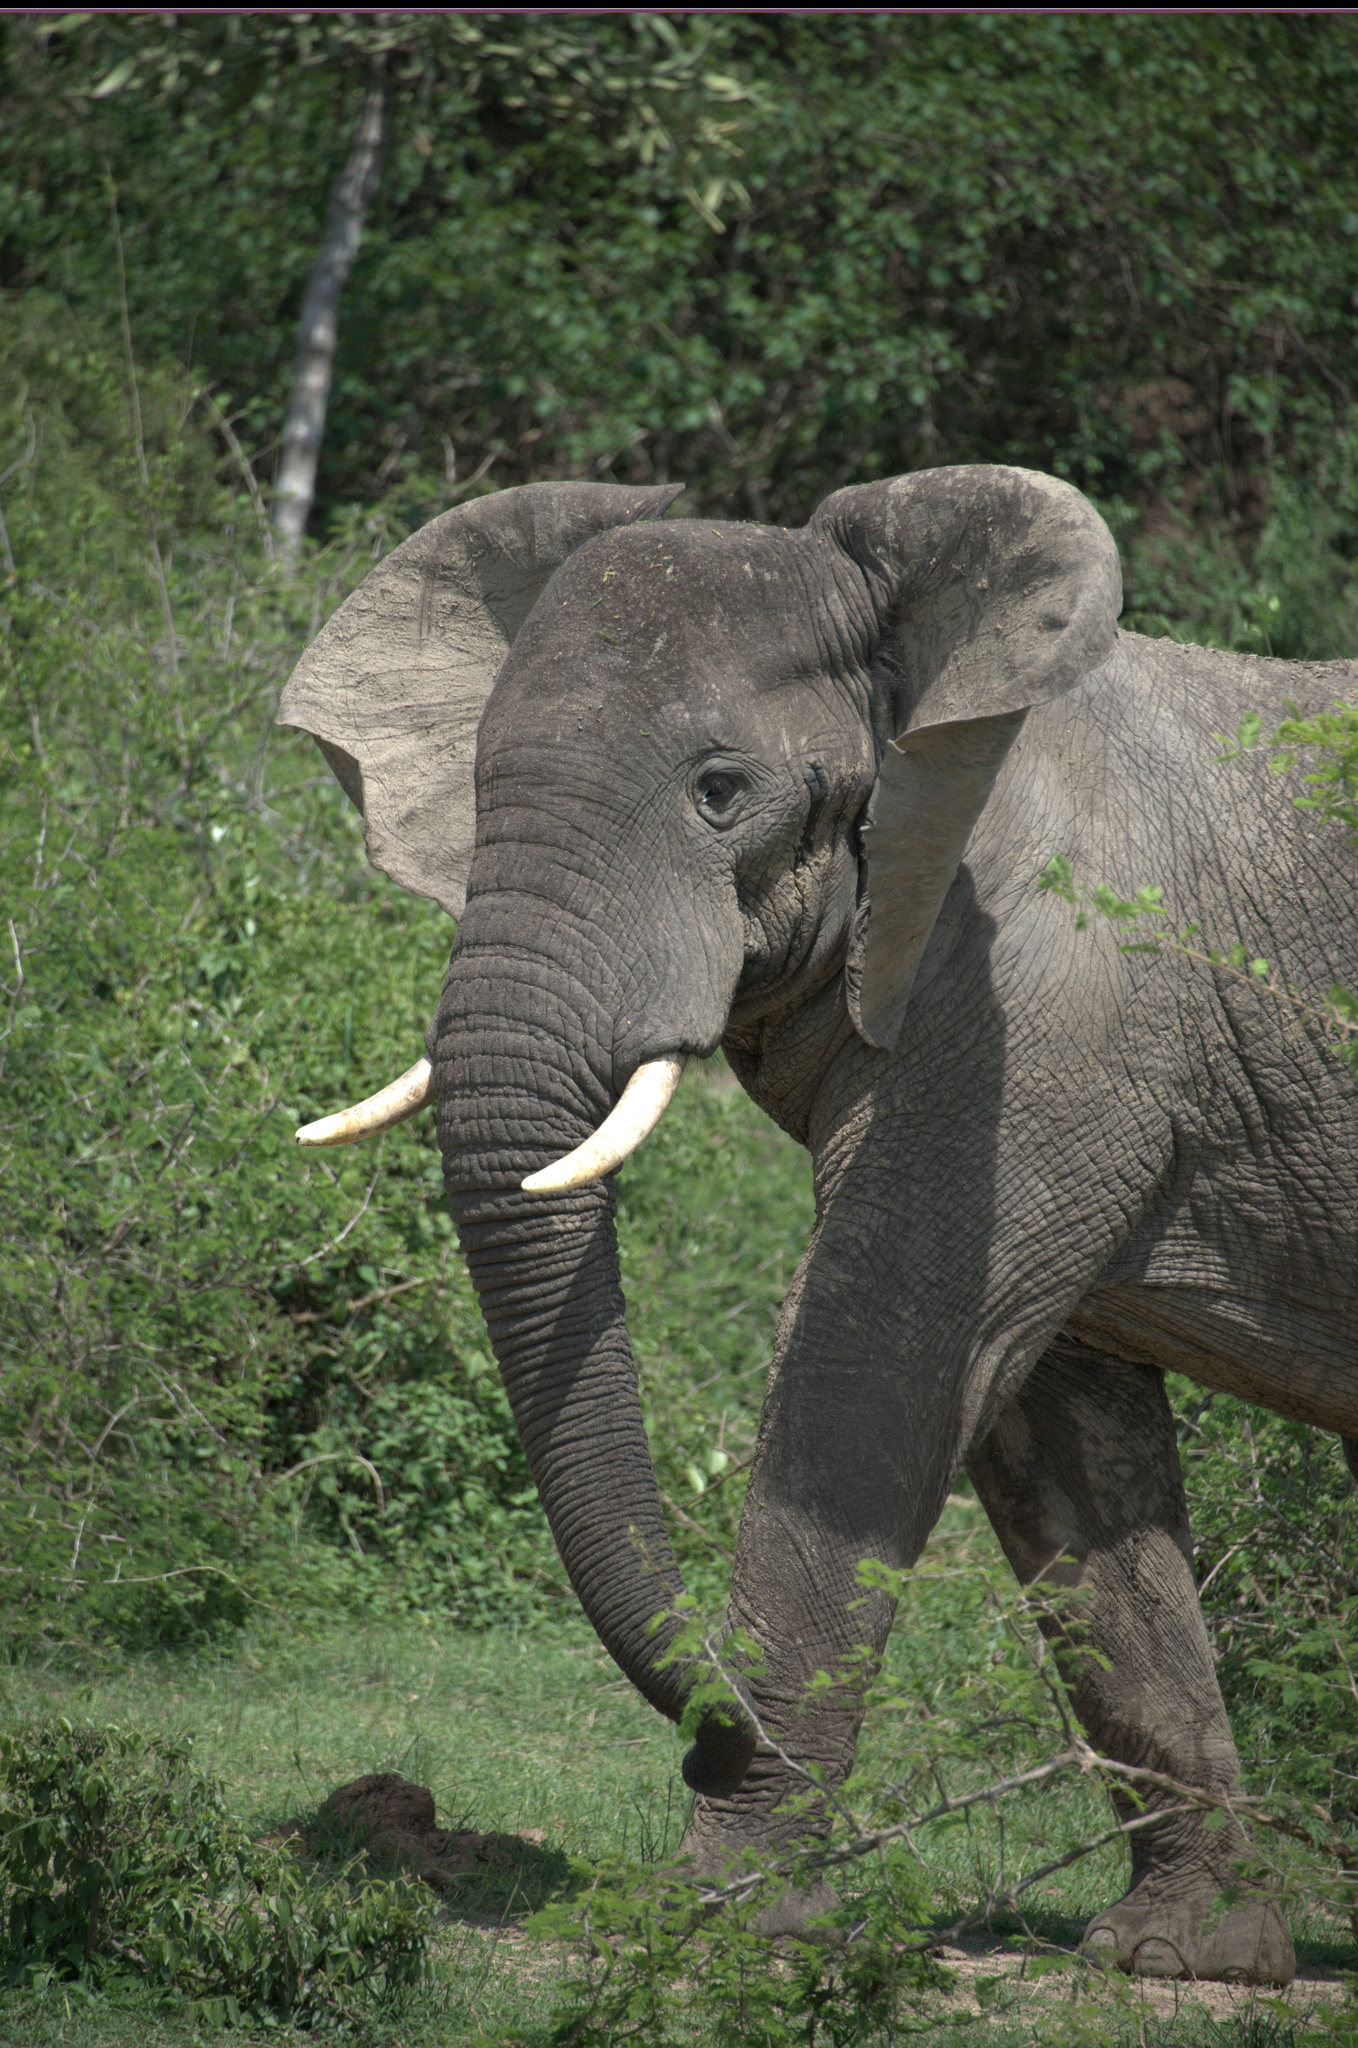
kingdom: Animalia
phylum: Chordata
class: Mammalia
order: Proboscidea
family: Elephantidae
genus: Loxodonta
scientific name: Loxodonta africana
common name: African elephant
